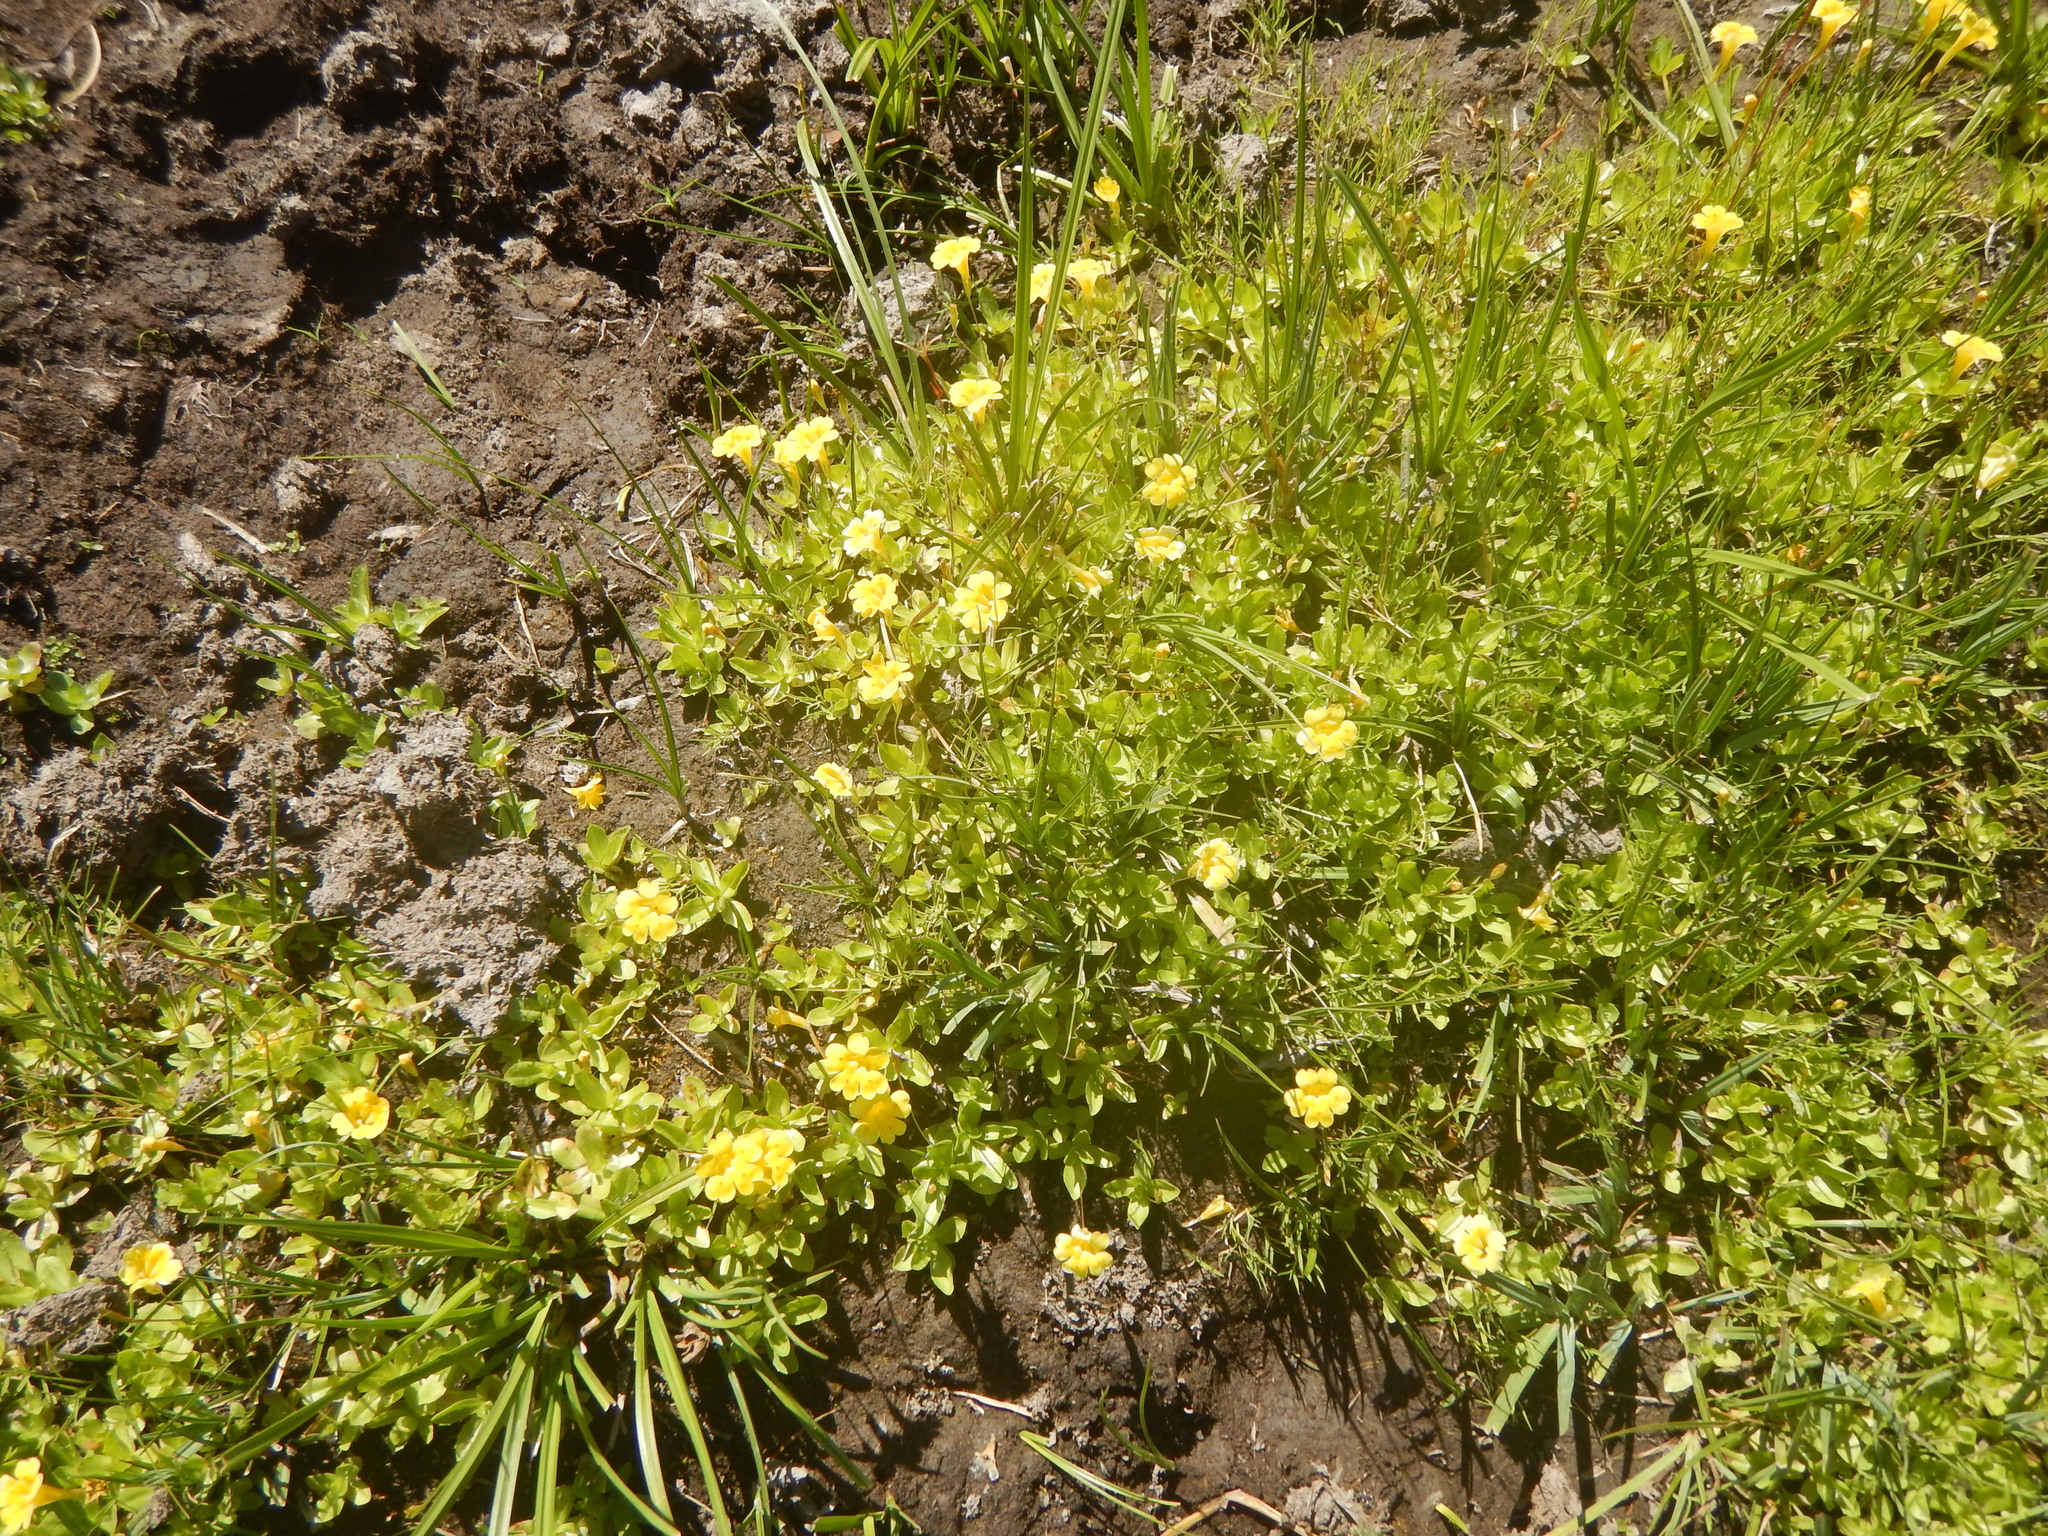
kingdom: Plantae
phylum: Tracheophyta
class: Magnoliopsida
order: Lamiales
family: Phrymaceae
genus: Erythranthe
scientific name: Erythranthe primuloides
